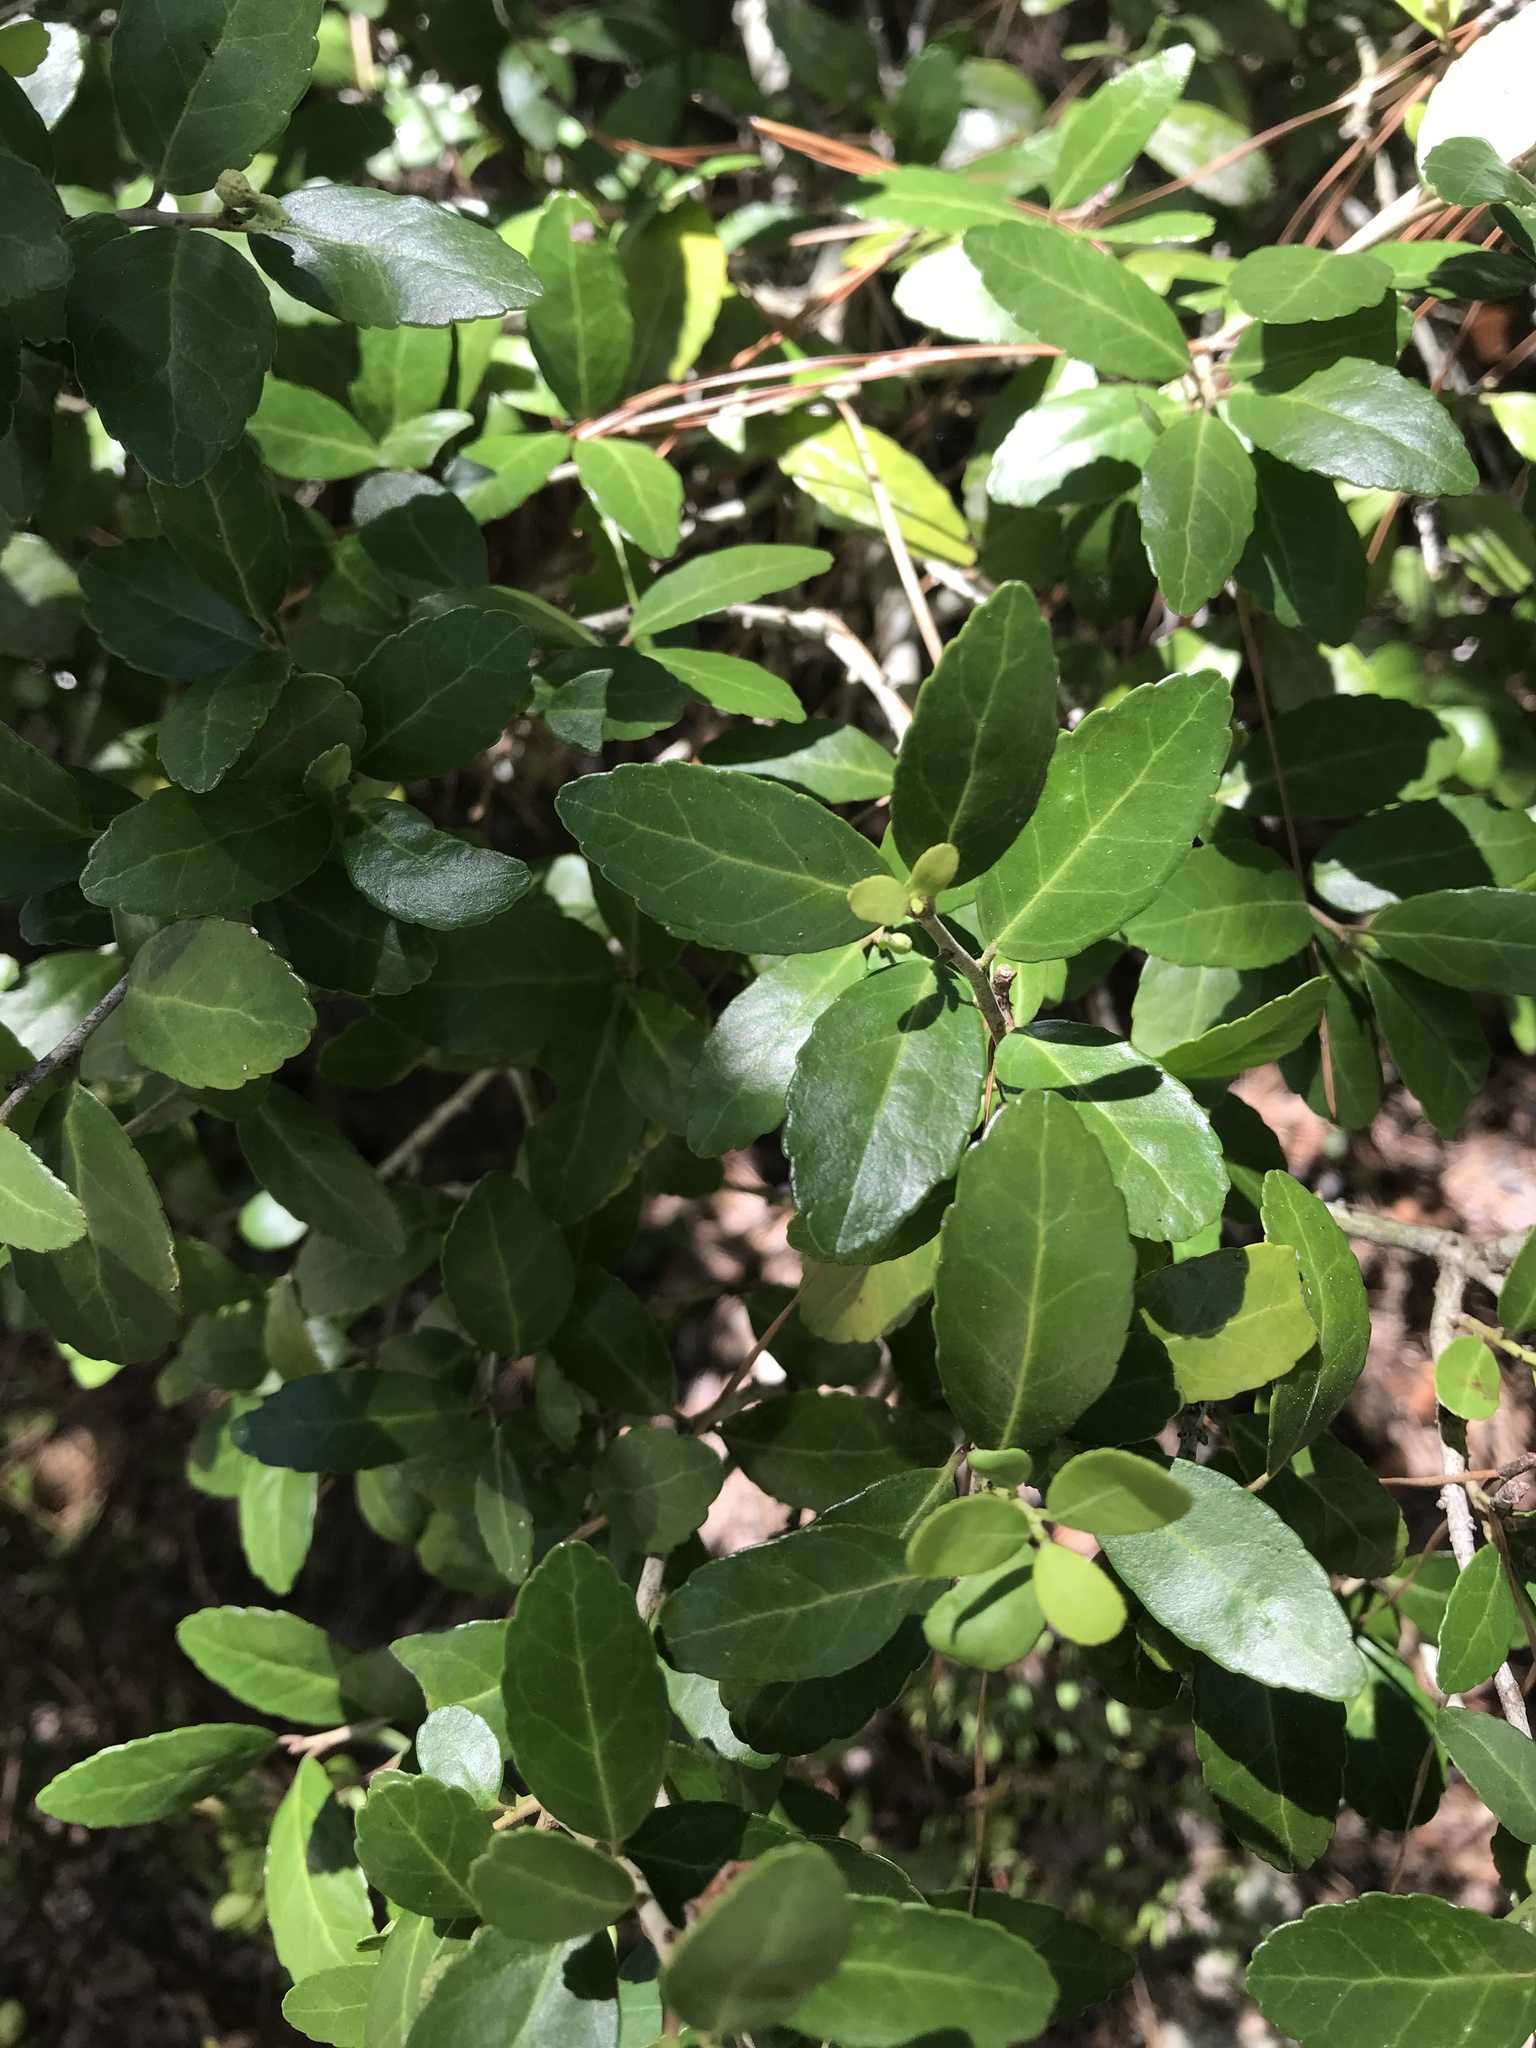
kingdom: Plantae
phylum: Tracheophyta
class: Magnoliopsida
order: Aquifoliales
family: Aquifoliaceae
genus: Ilex
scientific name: Ilex vomitoria
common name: Yaupon holly
